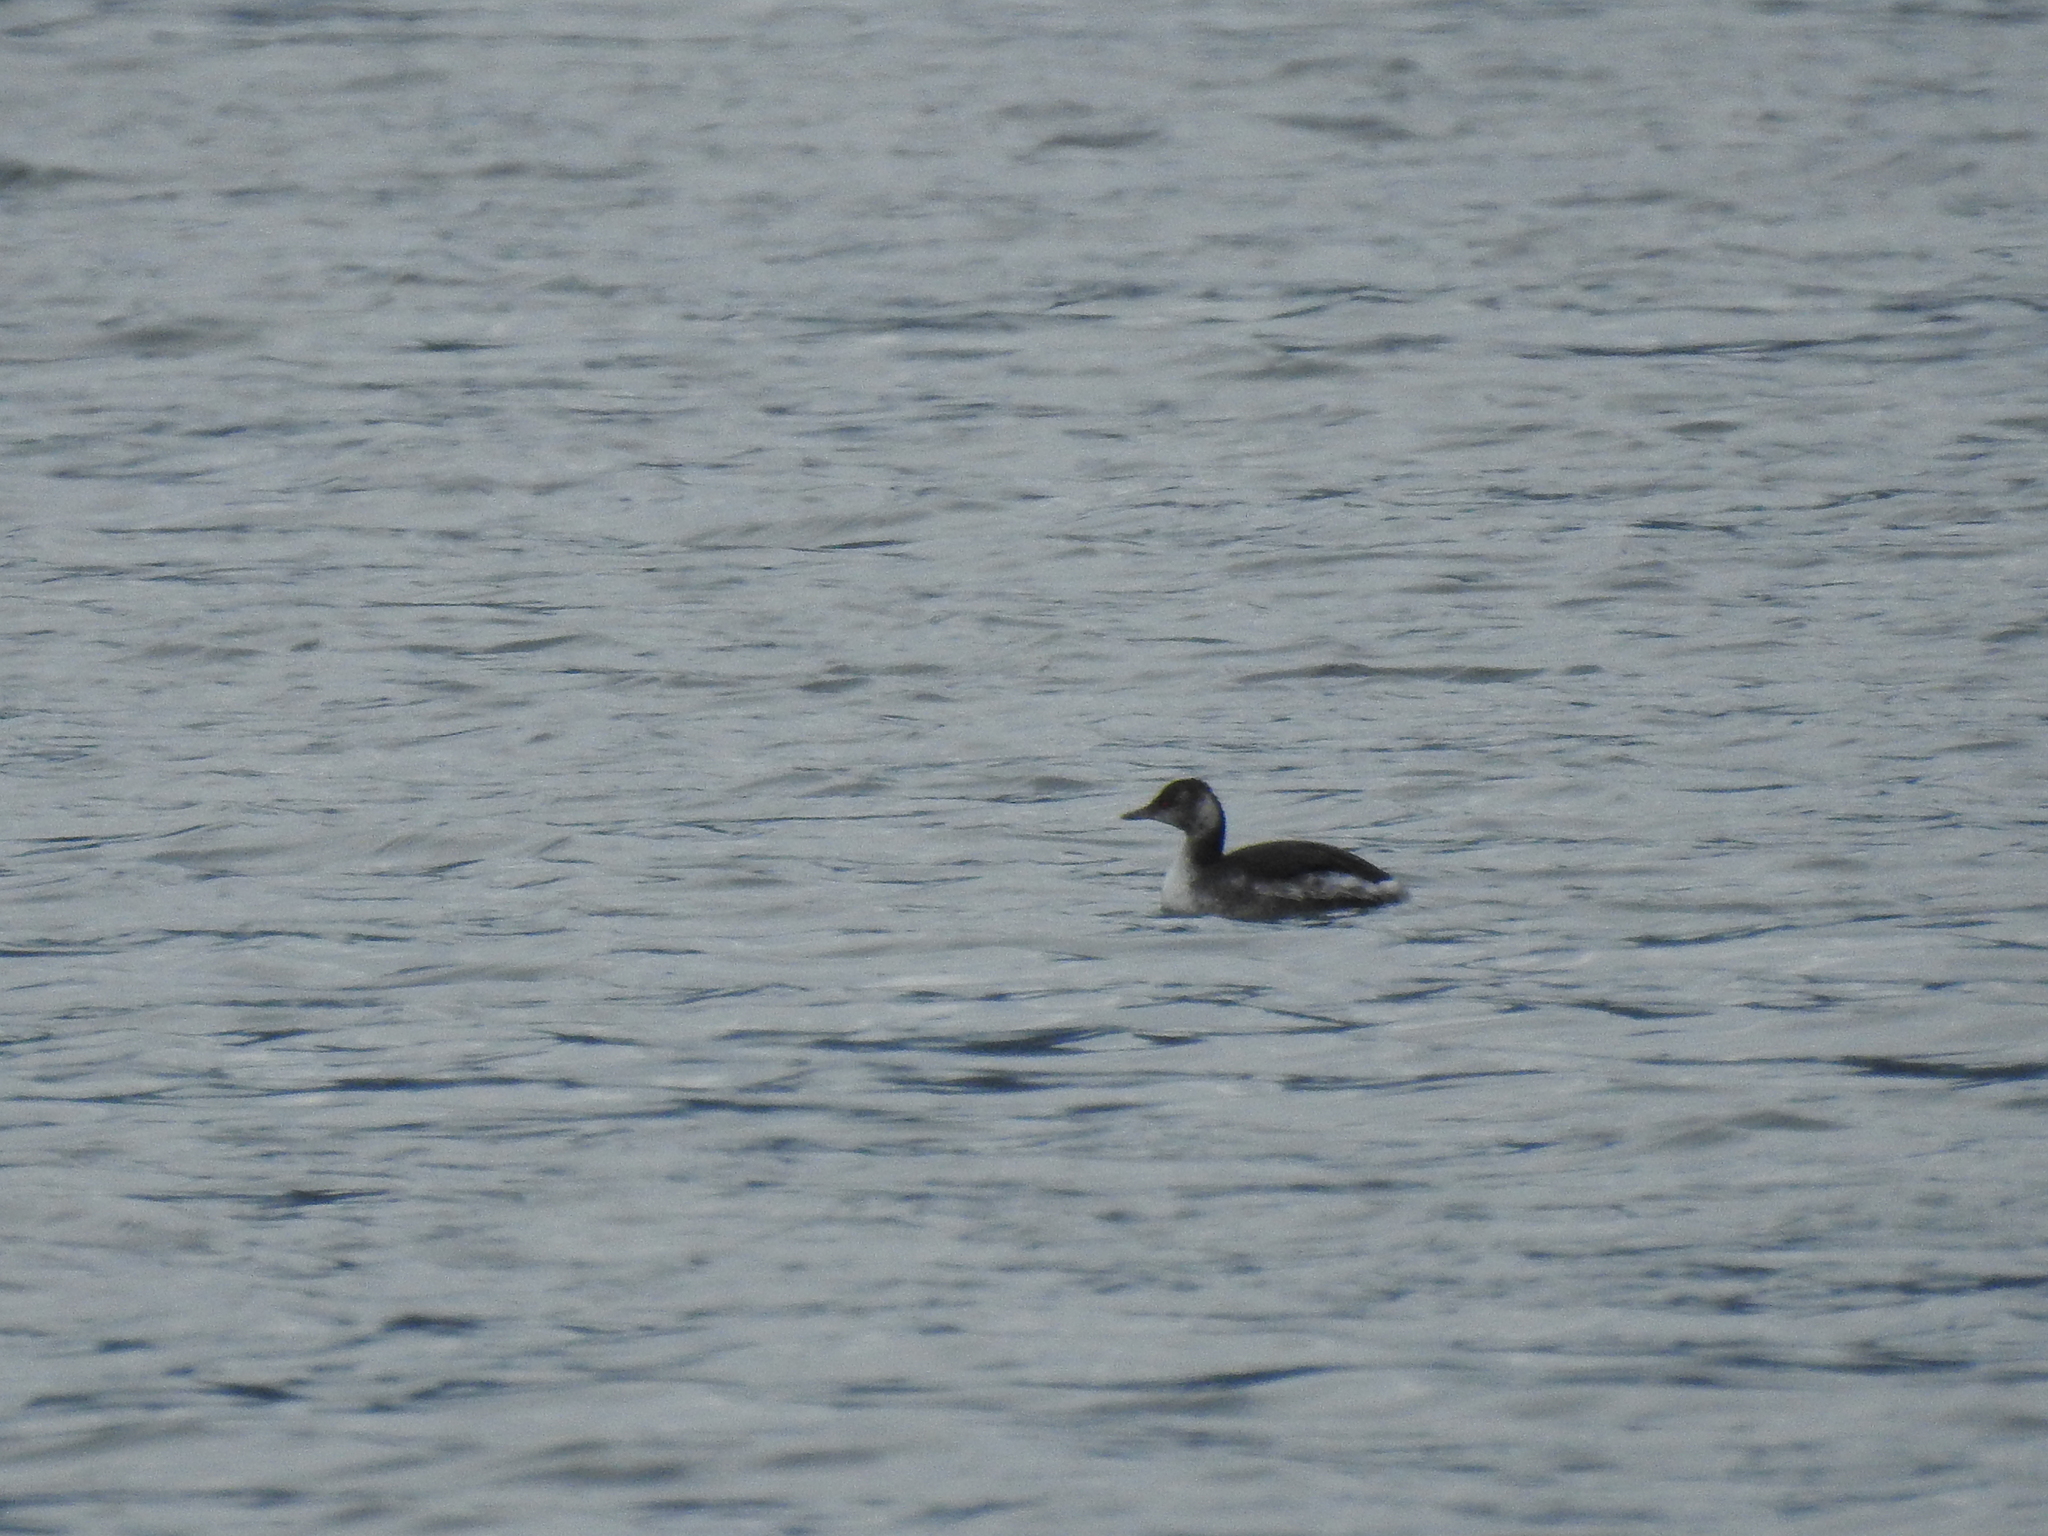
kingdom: Animalia
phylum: Chordata
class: Aves
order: Podicipediformes
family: Podicipedidae
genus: Podiceps
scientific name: Podiceps auritus
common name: Horned grebe
